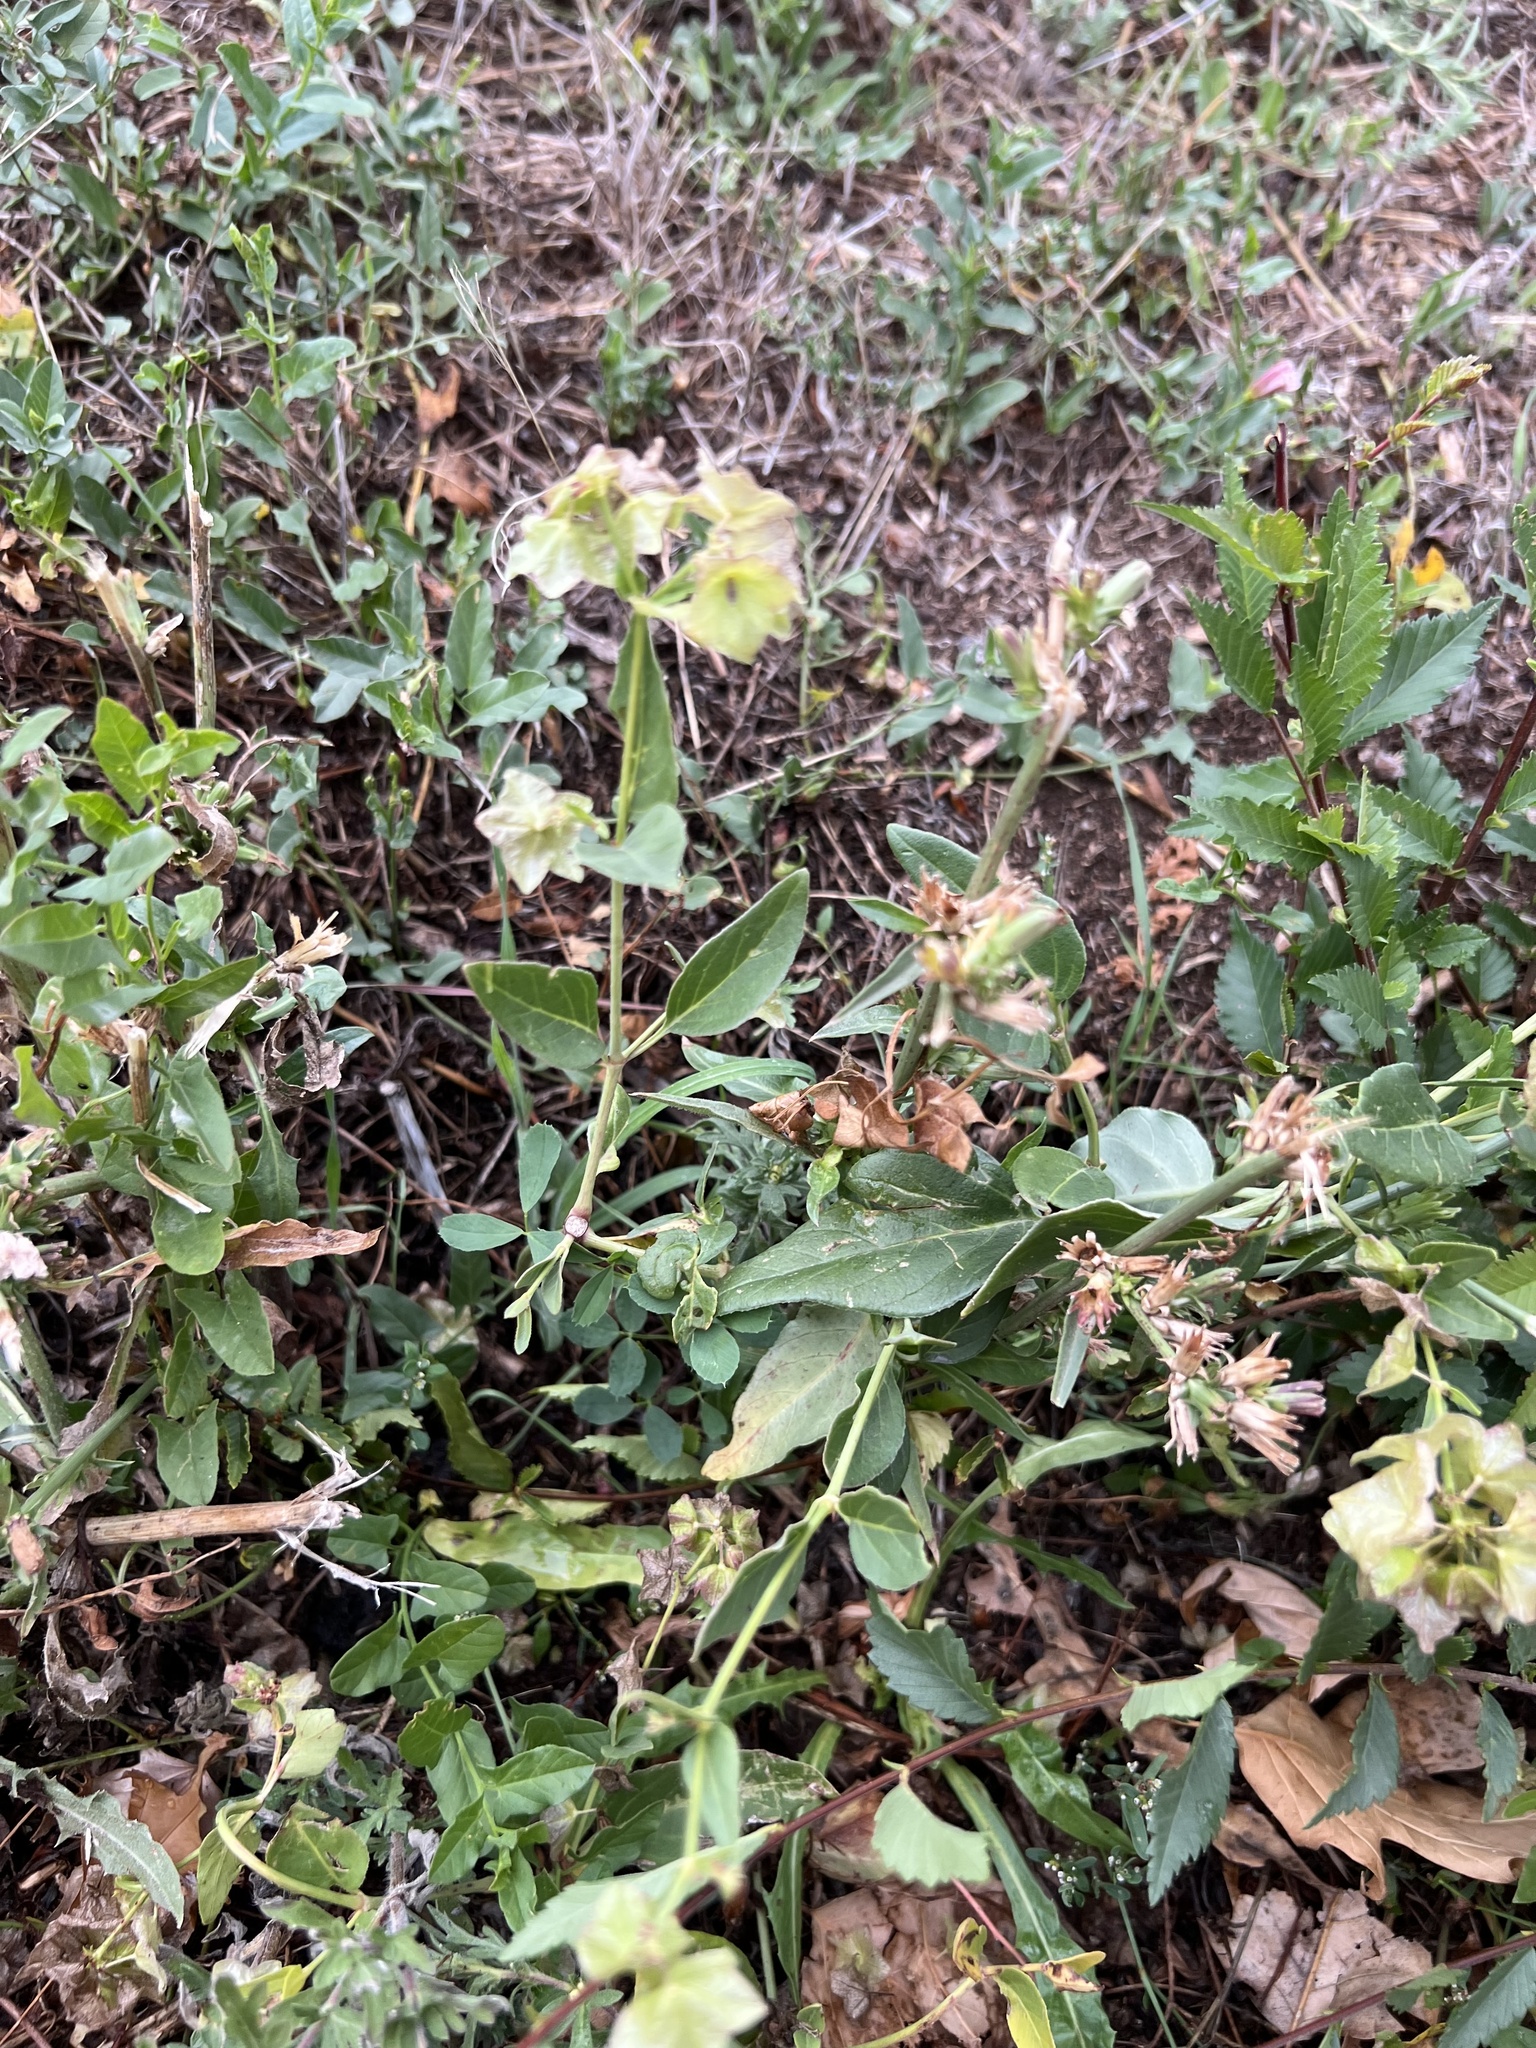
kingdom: Plantae
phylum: Tracheophyta
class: Magnoliopsida
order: Caryophyllales
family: Nyctaginaceae
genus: Mirabilis
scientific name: Mirabilis nyctaginea
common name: Umbrella wort
